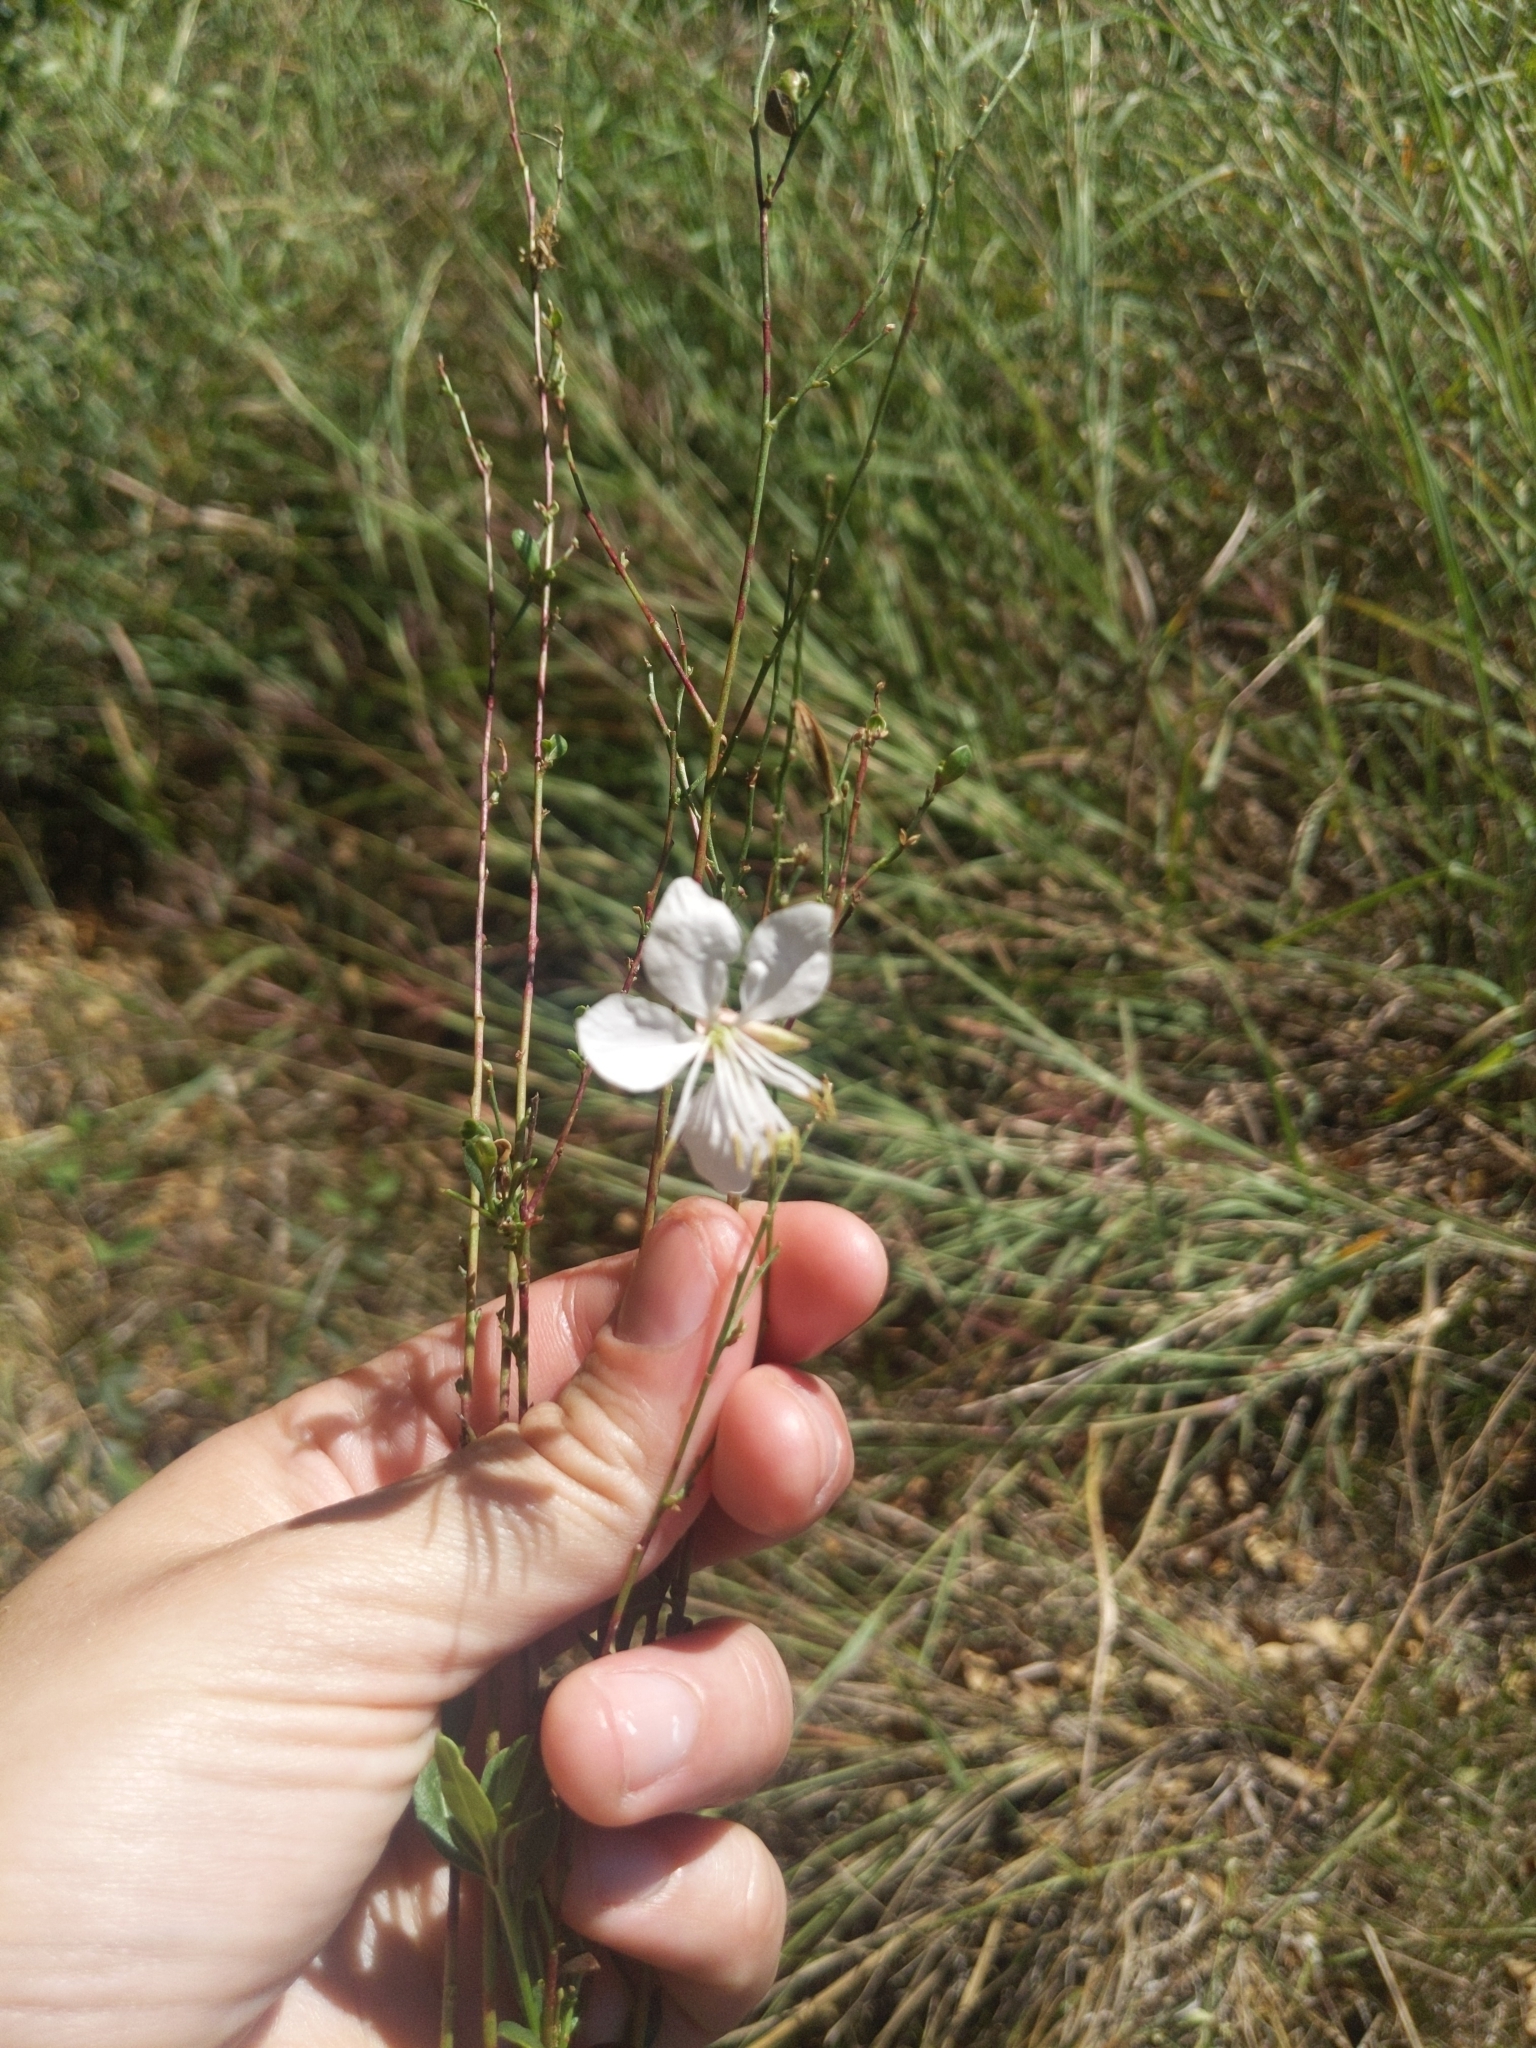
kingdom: Plantae
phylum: Tracheophyta
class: Magnoliopsida
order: Myrtales
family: Onagraceae
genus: Oenothera
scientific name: Oenothera lindheimeri
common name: Lindheimer's beeblossom
